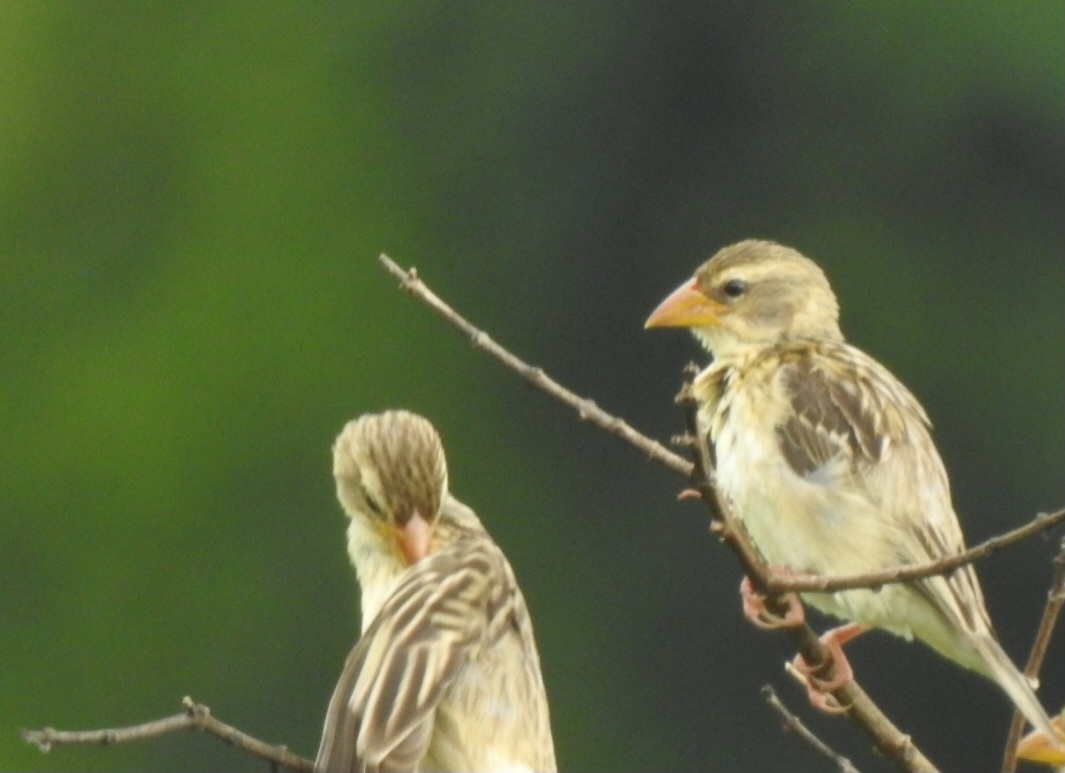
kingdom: Animalia
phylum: Chordata
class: Aves
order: Passeriformes
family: Ploceidae
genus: Ploceus
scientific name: Ploceus philippinus
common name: Baya weaver
